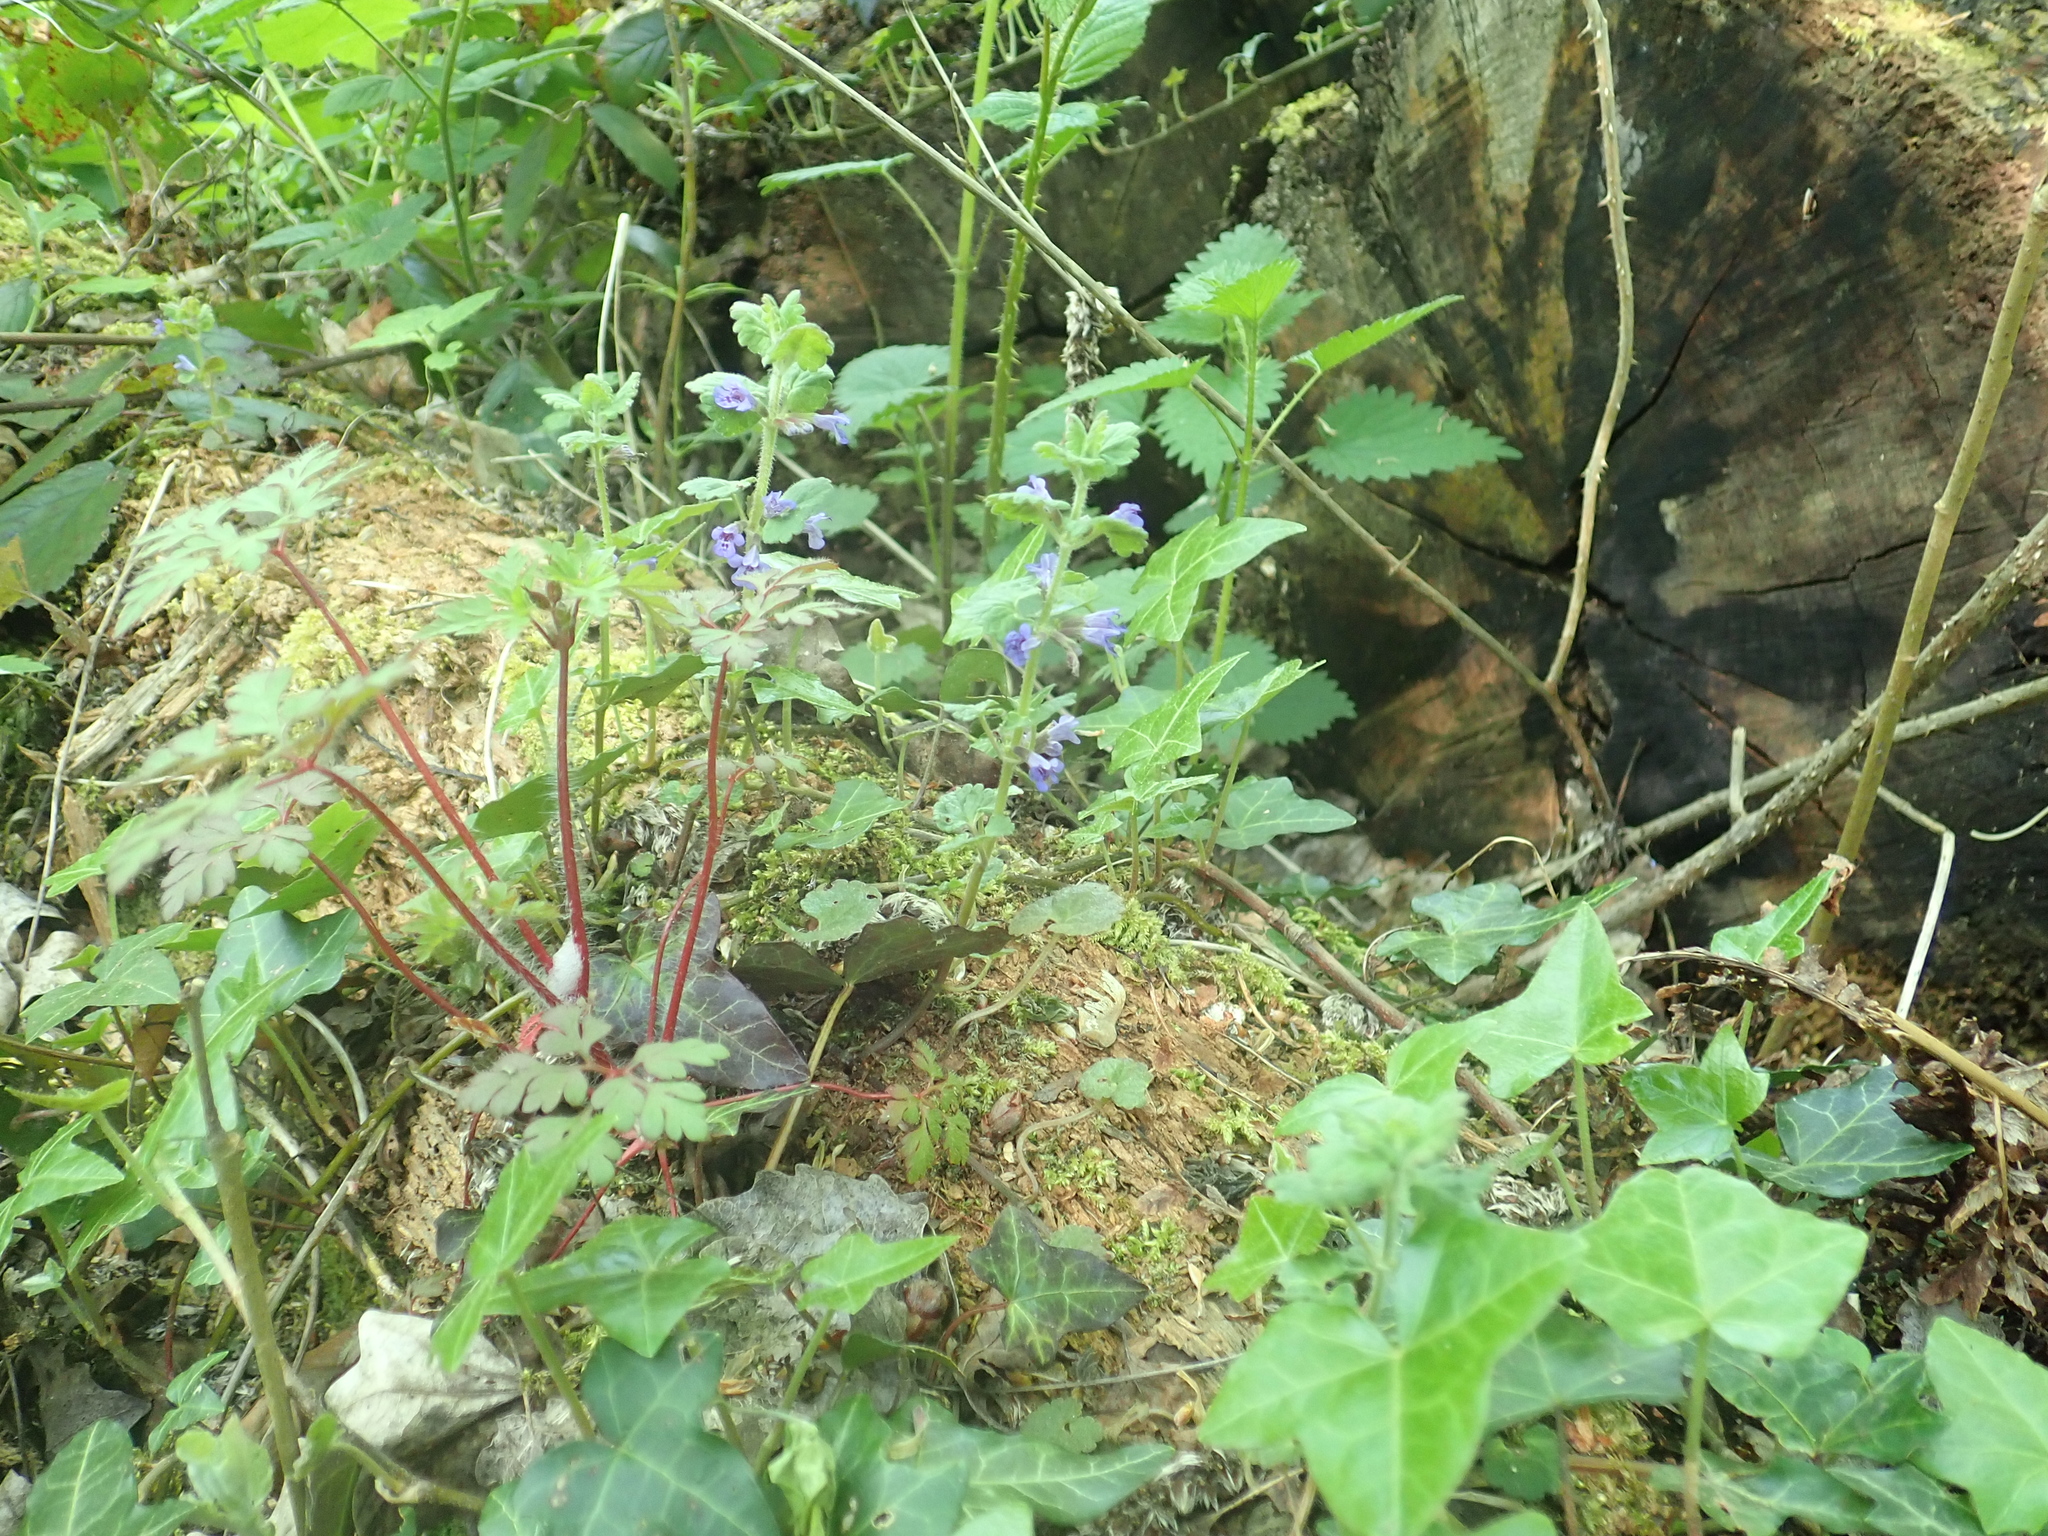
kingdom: Plantae
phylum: Tracheophyta
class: Magnoliopsida
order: Lamiales
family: Lamiaceae
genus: Glechoma
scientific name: Glechoma hederacea
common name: Ground ivy
